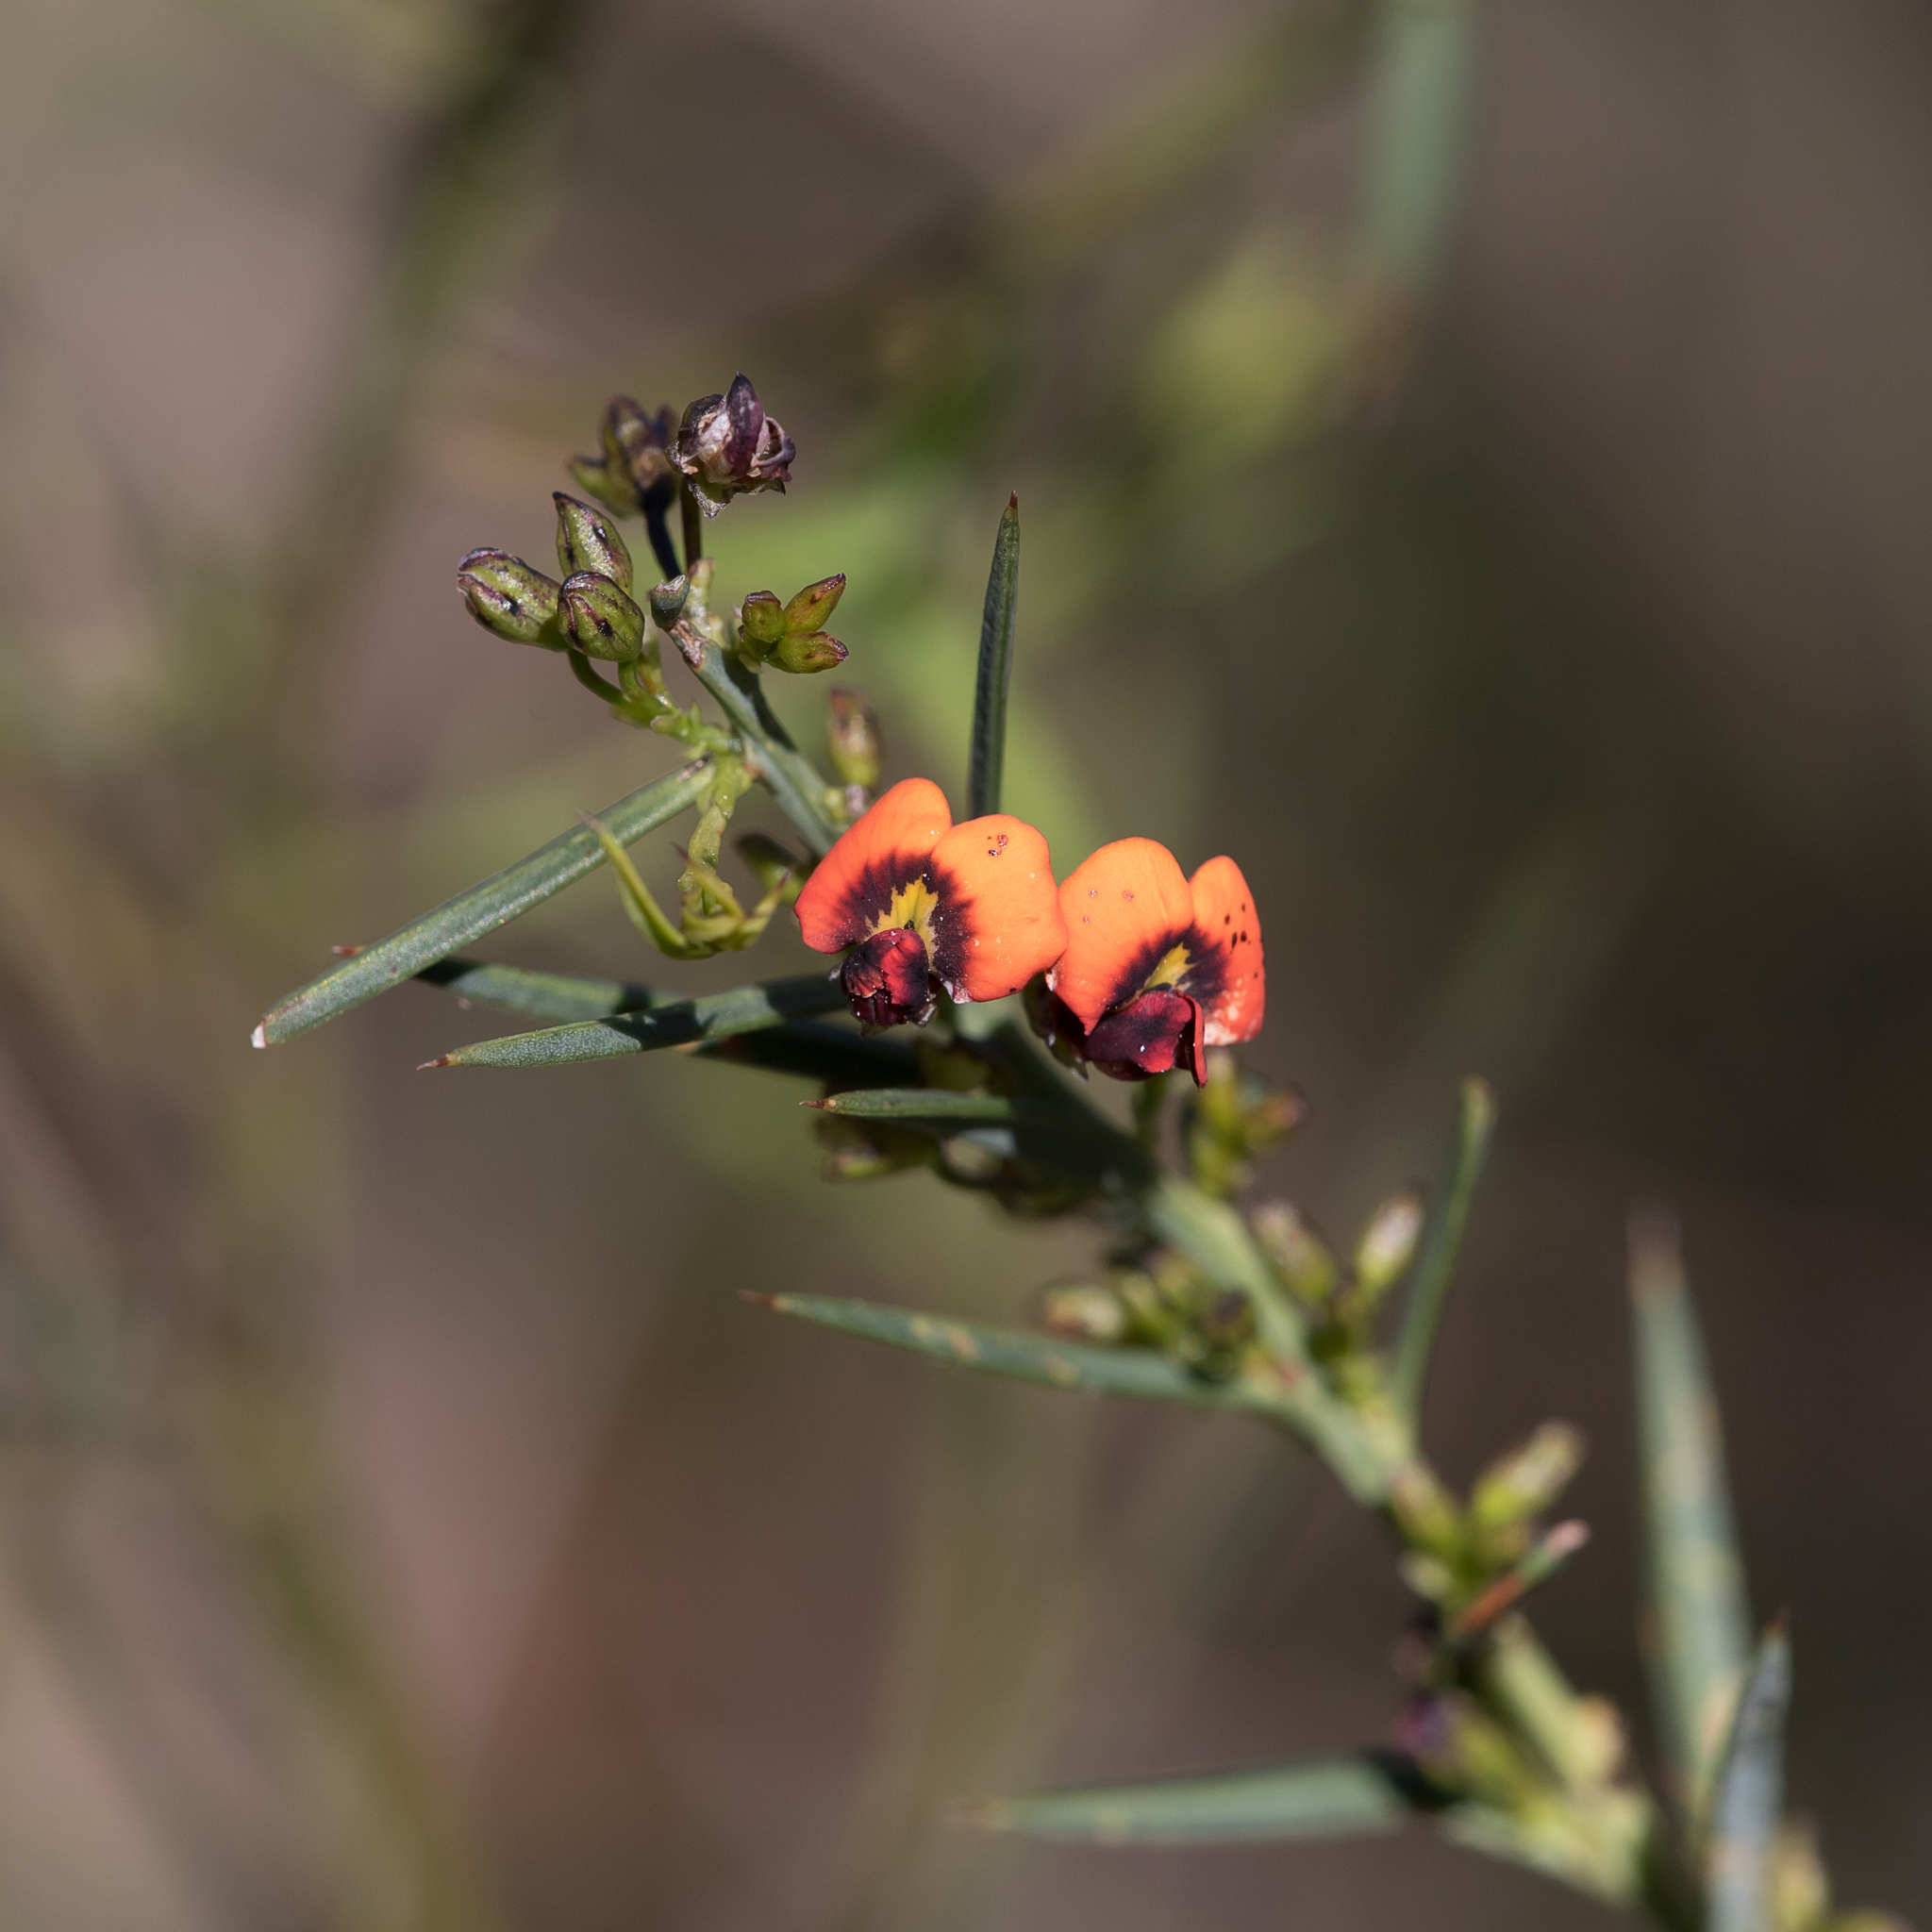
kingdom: Plantae
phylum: Tracheophyta
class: Magnoliopsida
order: Fabales
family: Fabaceae
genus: Daviesia
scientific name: Daviesia ulicifolia
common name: Gorse bitter-pea
